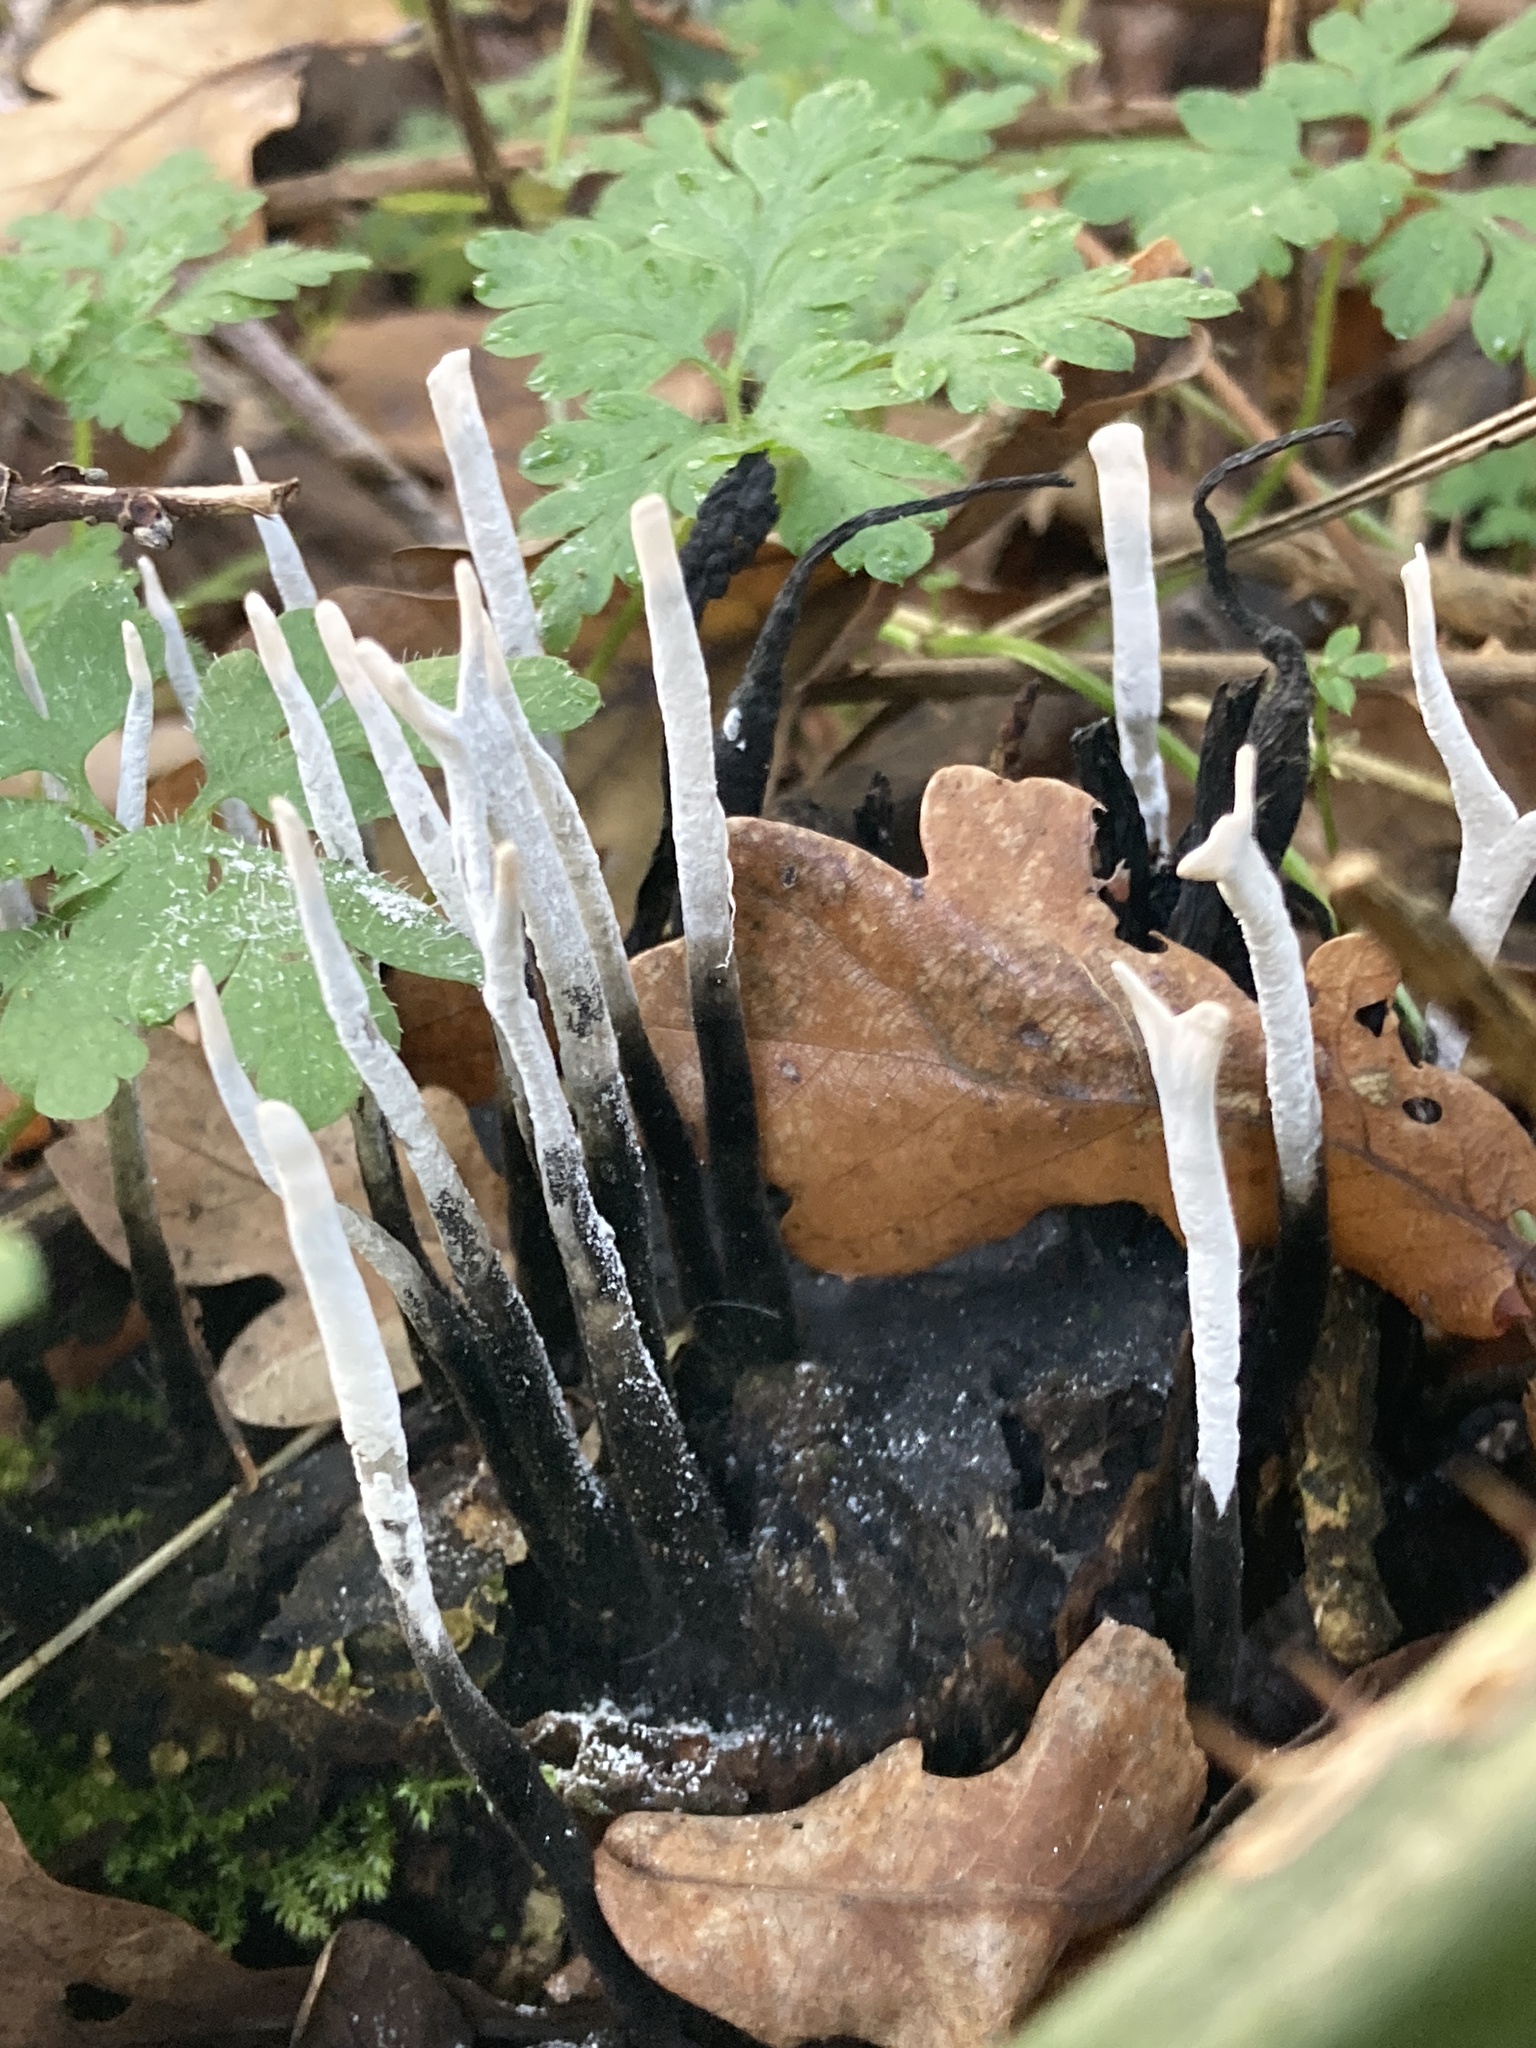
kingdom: Fungi
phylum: Ascomycota
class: Sordariomycetes
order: Xylariales
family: Xylariaceae
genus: Xylaria
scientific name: Xylaria hypoxylon
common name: Candle-snuff fungus
